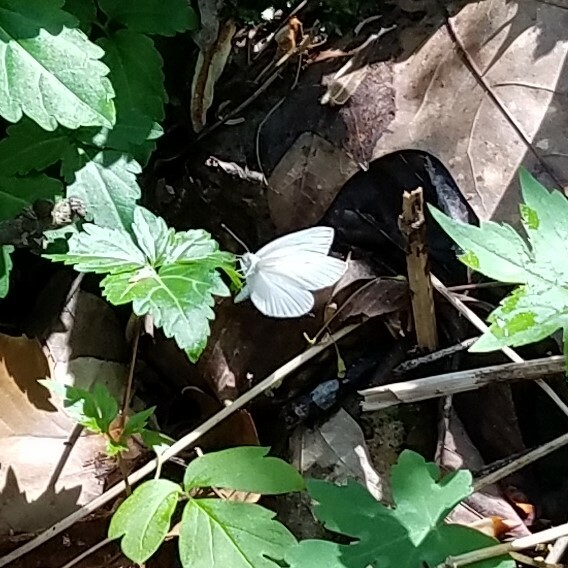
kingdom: Animalia
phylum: Arthropoda
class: Insecta
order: Lepidoptera
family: Pieridae
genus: Pieris
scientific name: Pieris virginiensis
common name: West virginia white
